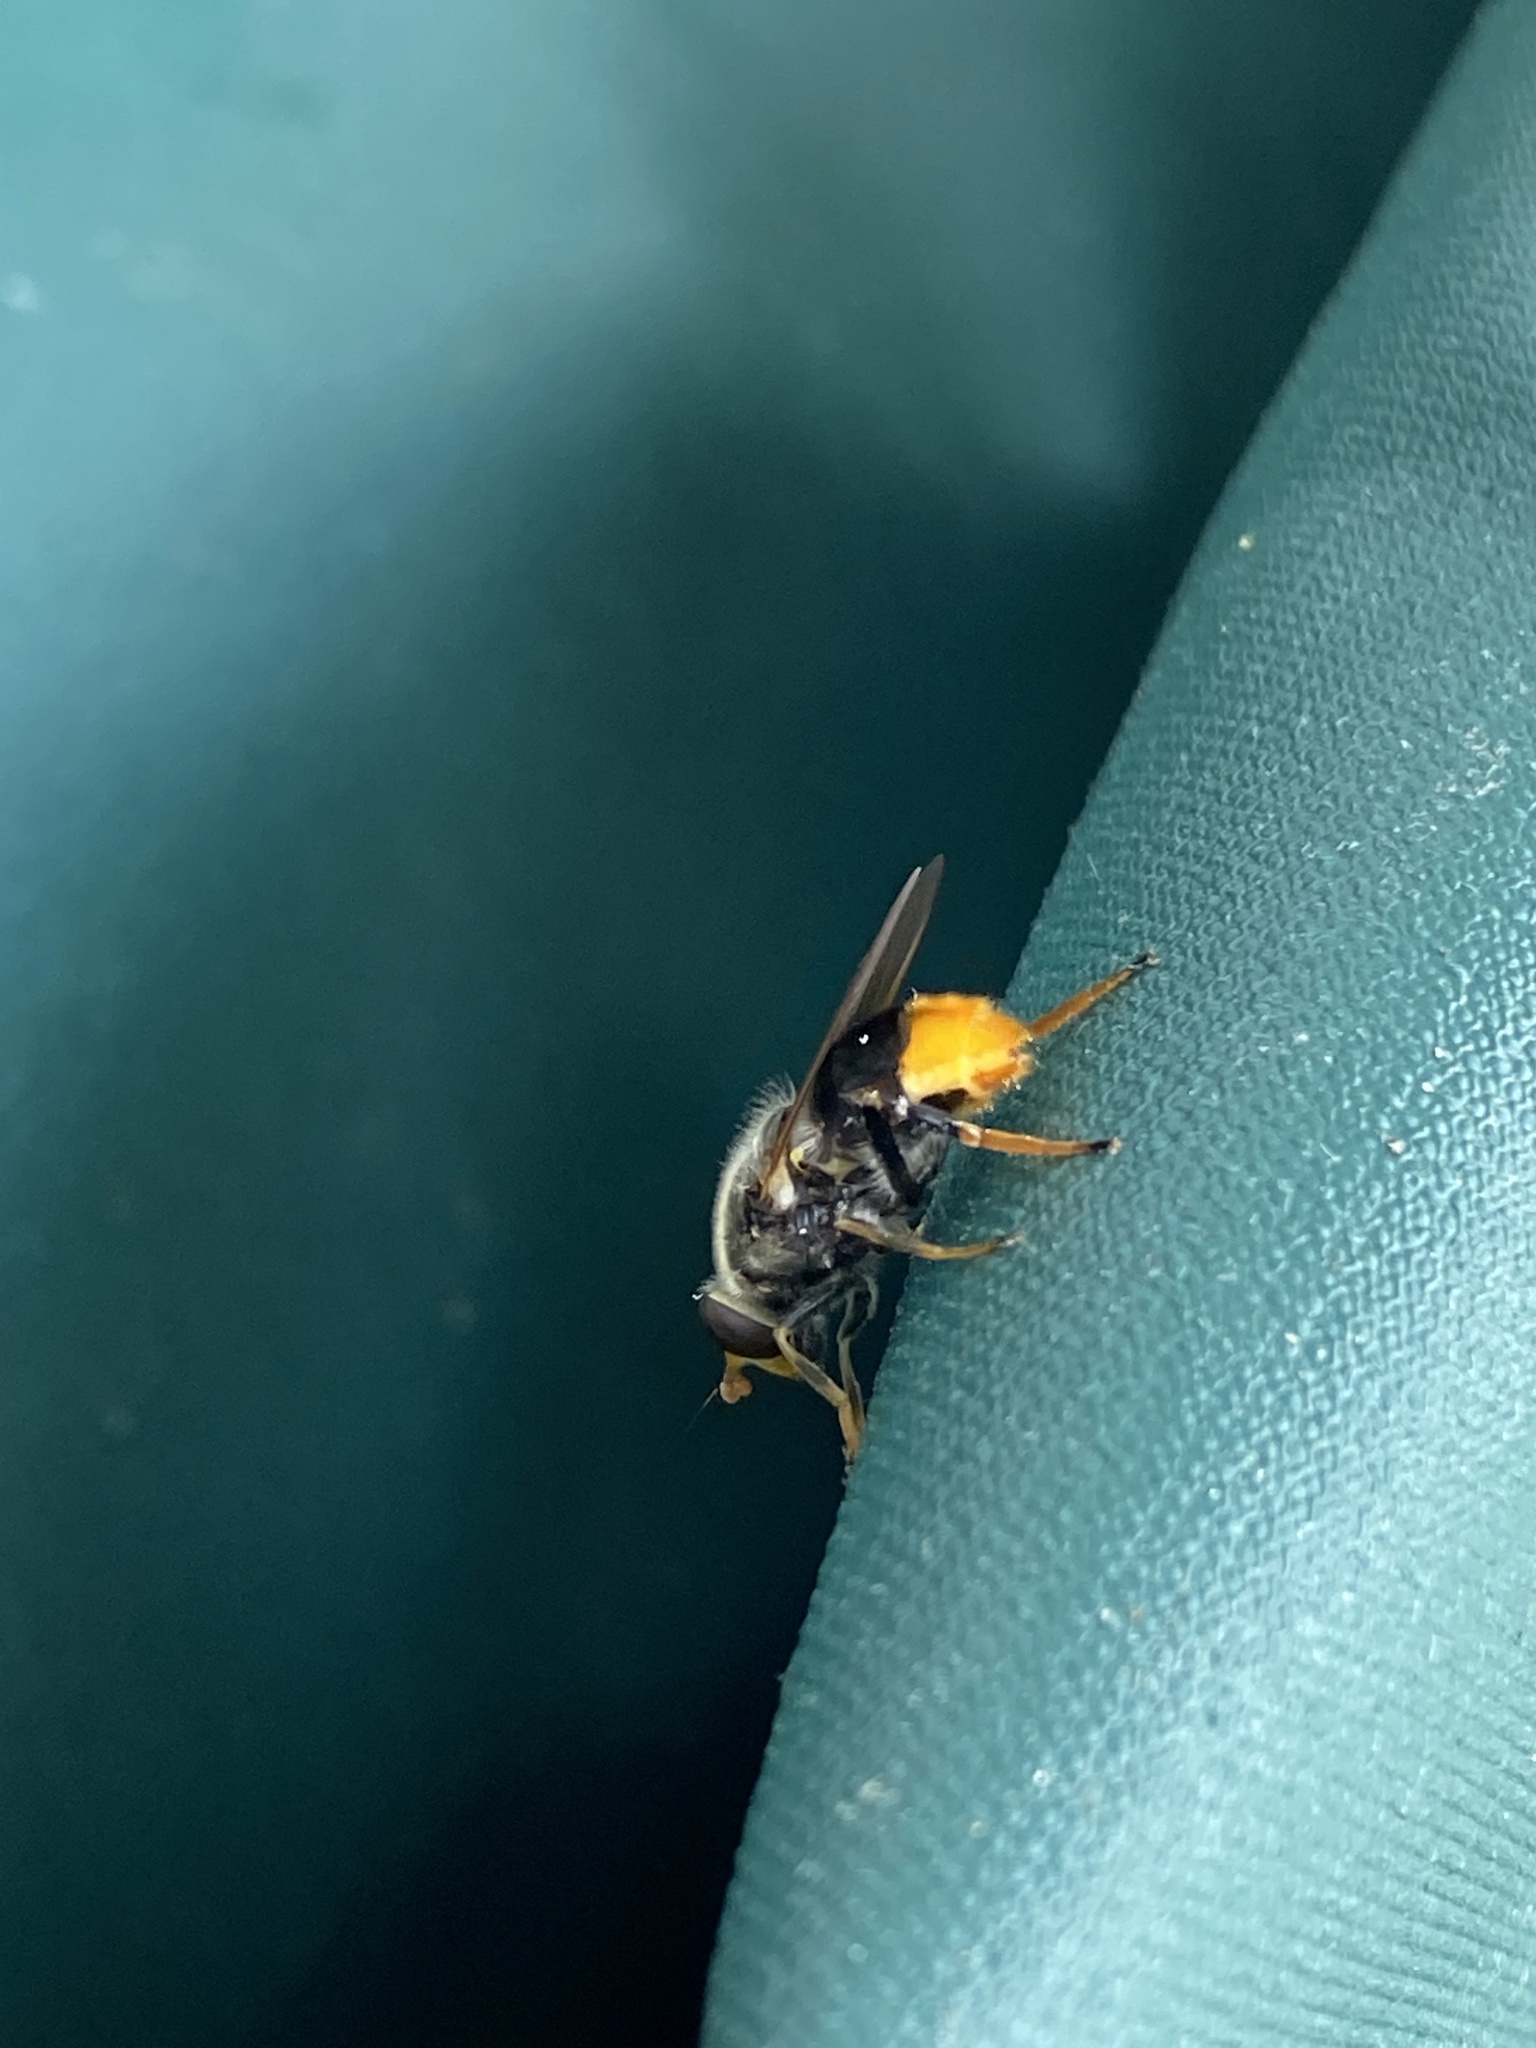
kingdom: Animalia
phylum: Arthropoda
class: Insecta
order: Diptera
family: Syrphidae
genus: Blera
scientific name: Blera analis
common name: Orange-tailed wood fly
